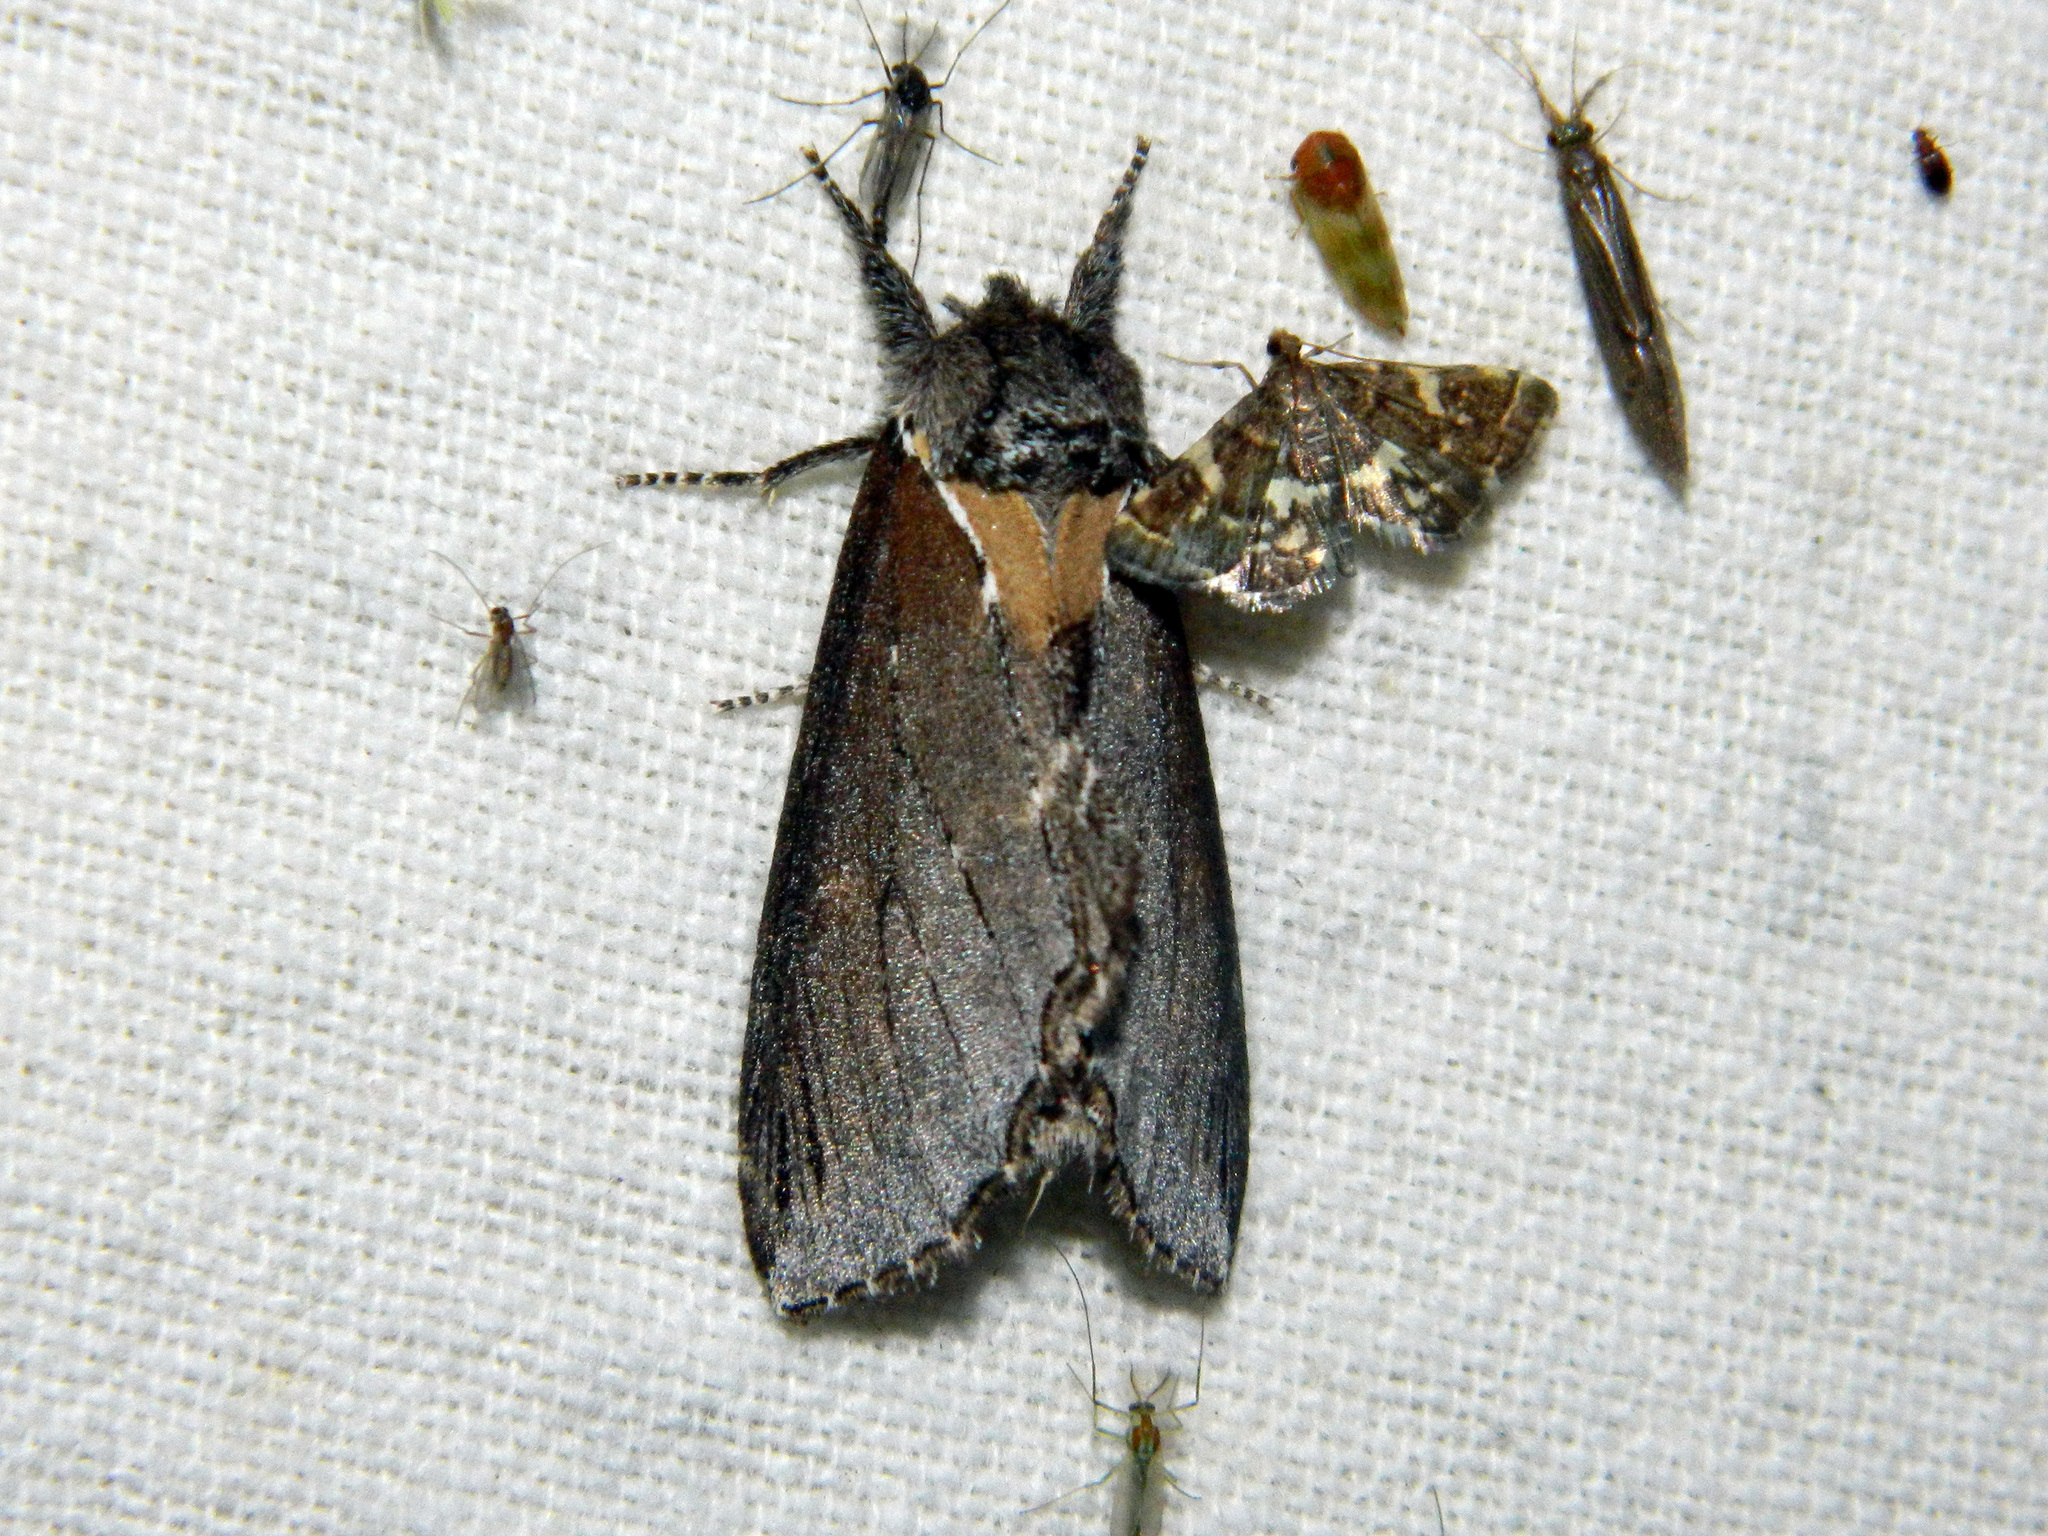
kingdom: Animalia
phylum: Arthropoda
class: Insecta
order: Lepidoptera
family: Notodontidae
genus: Pheosidea
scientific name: Pheosidea elegans
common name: Elegant prominent
